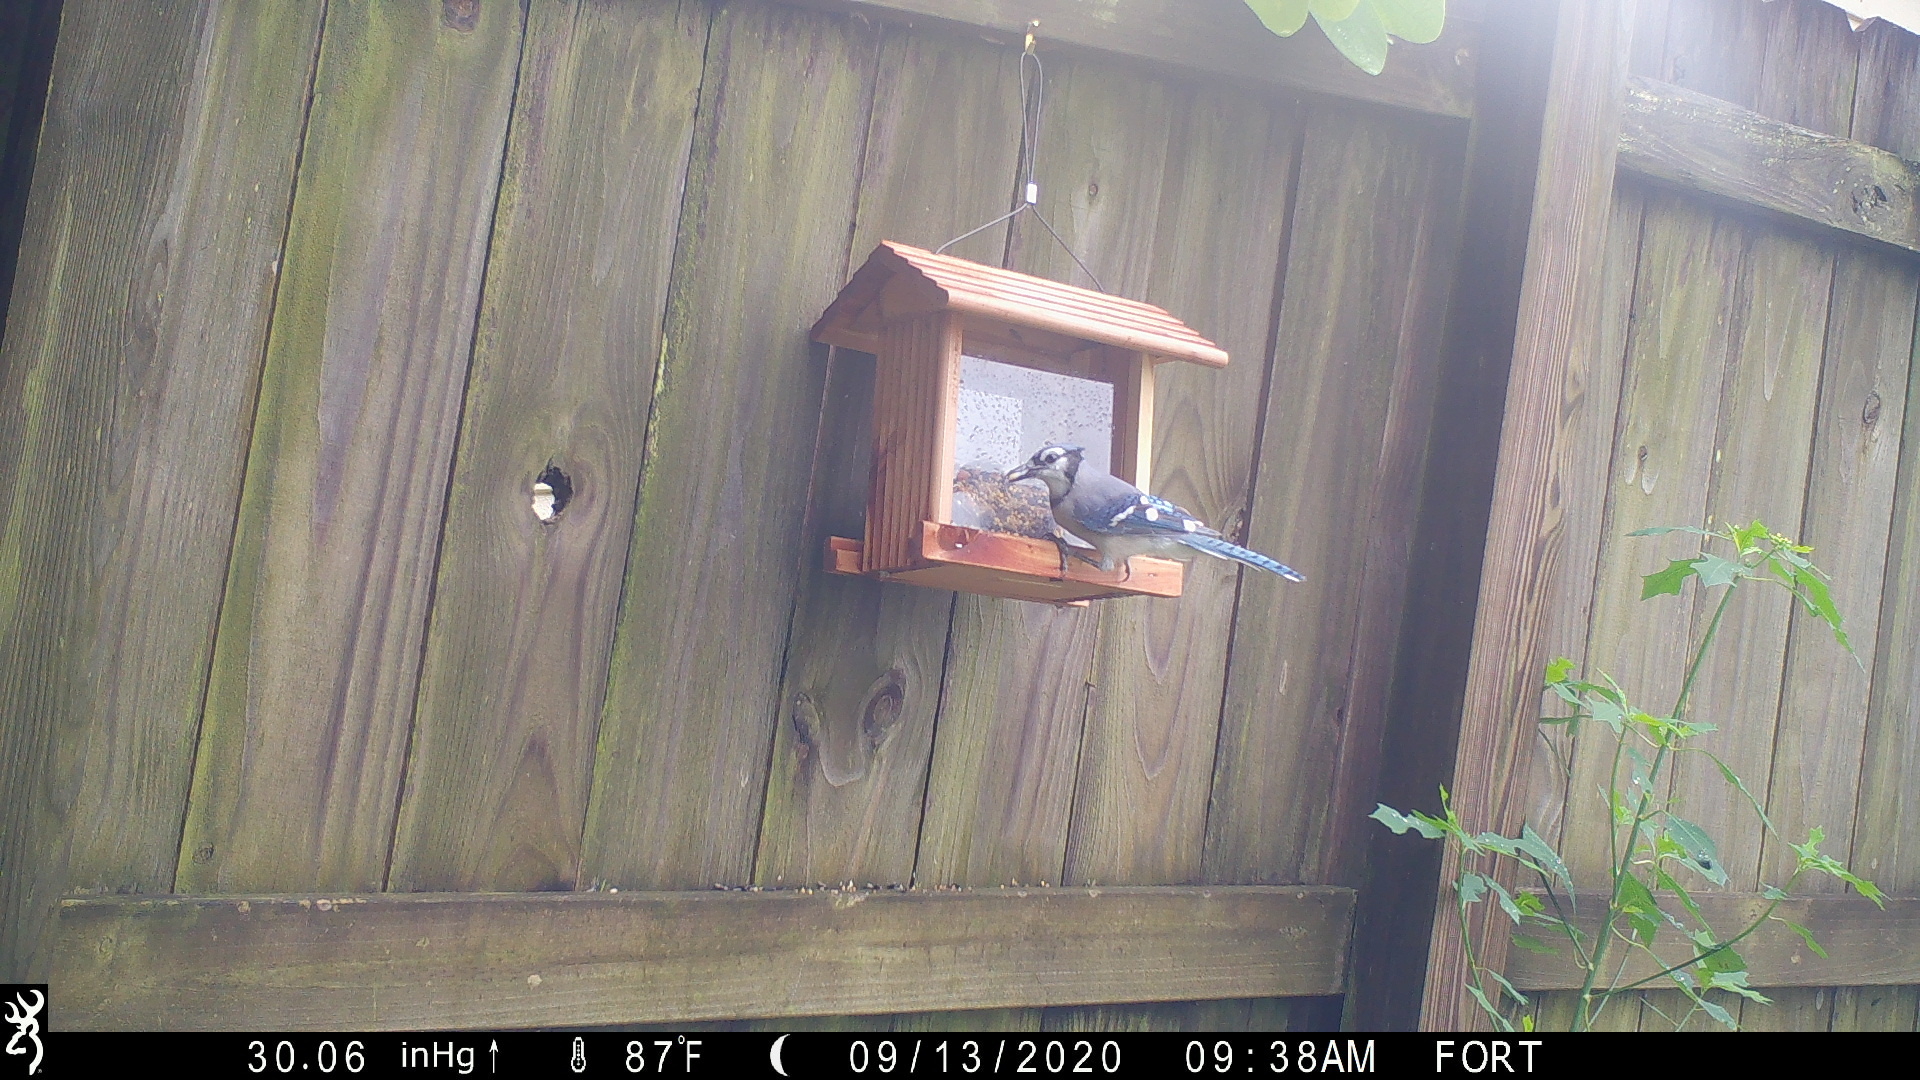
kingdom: Animalia
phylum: Chordata
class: Aves
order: Passeriformes
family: Corvidae
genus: Cyanocitta
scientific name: Cyanocitta cristata
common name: Blue jay
